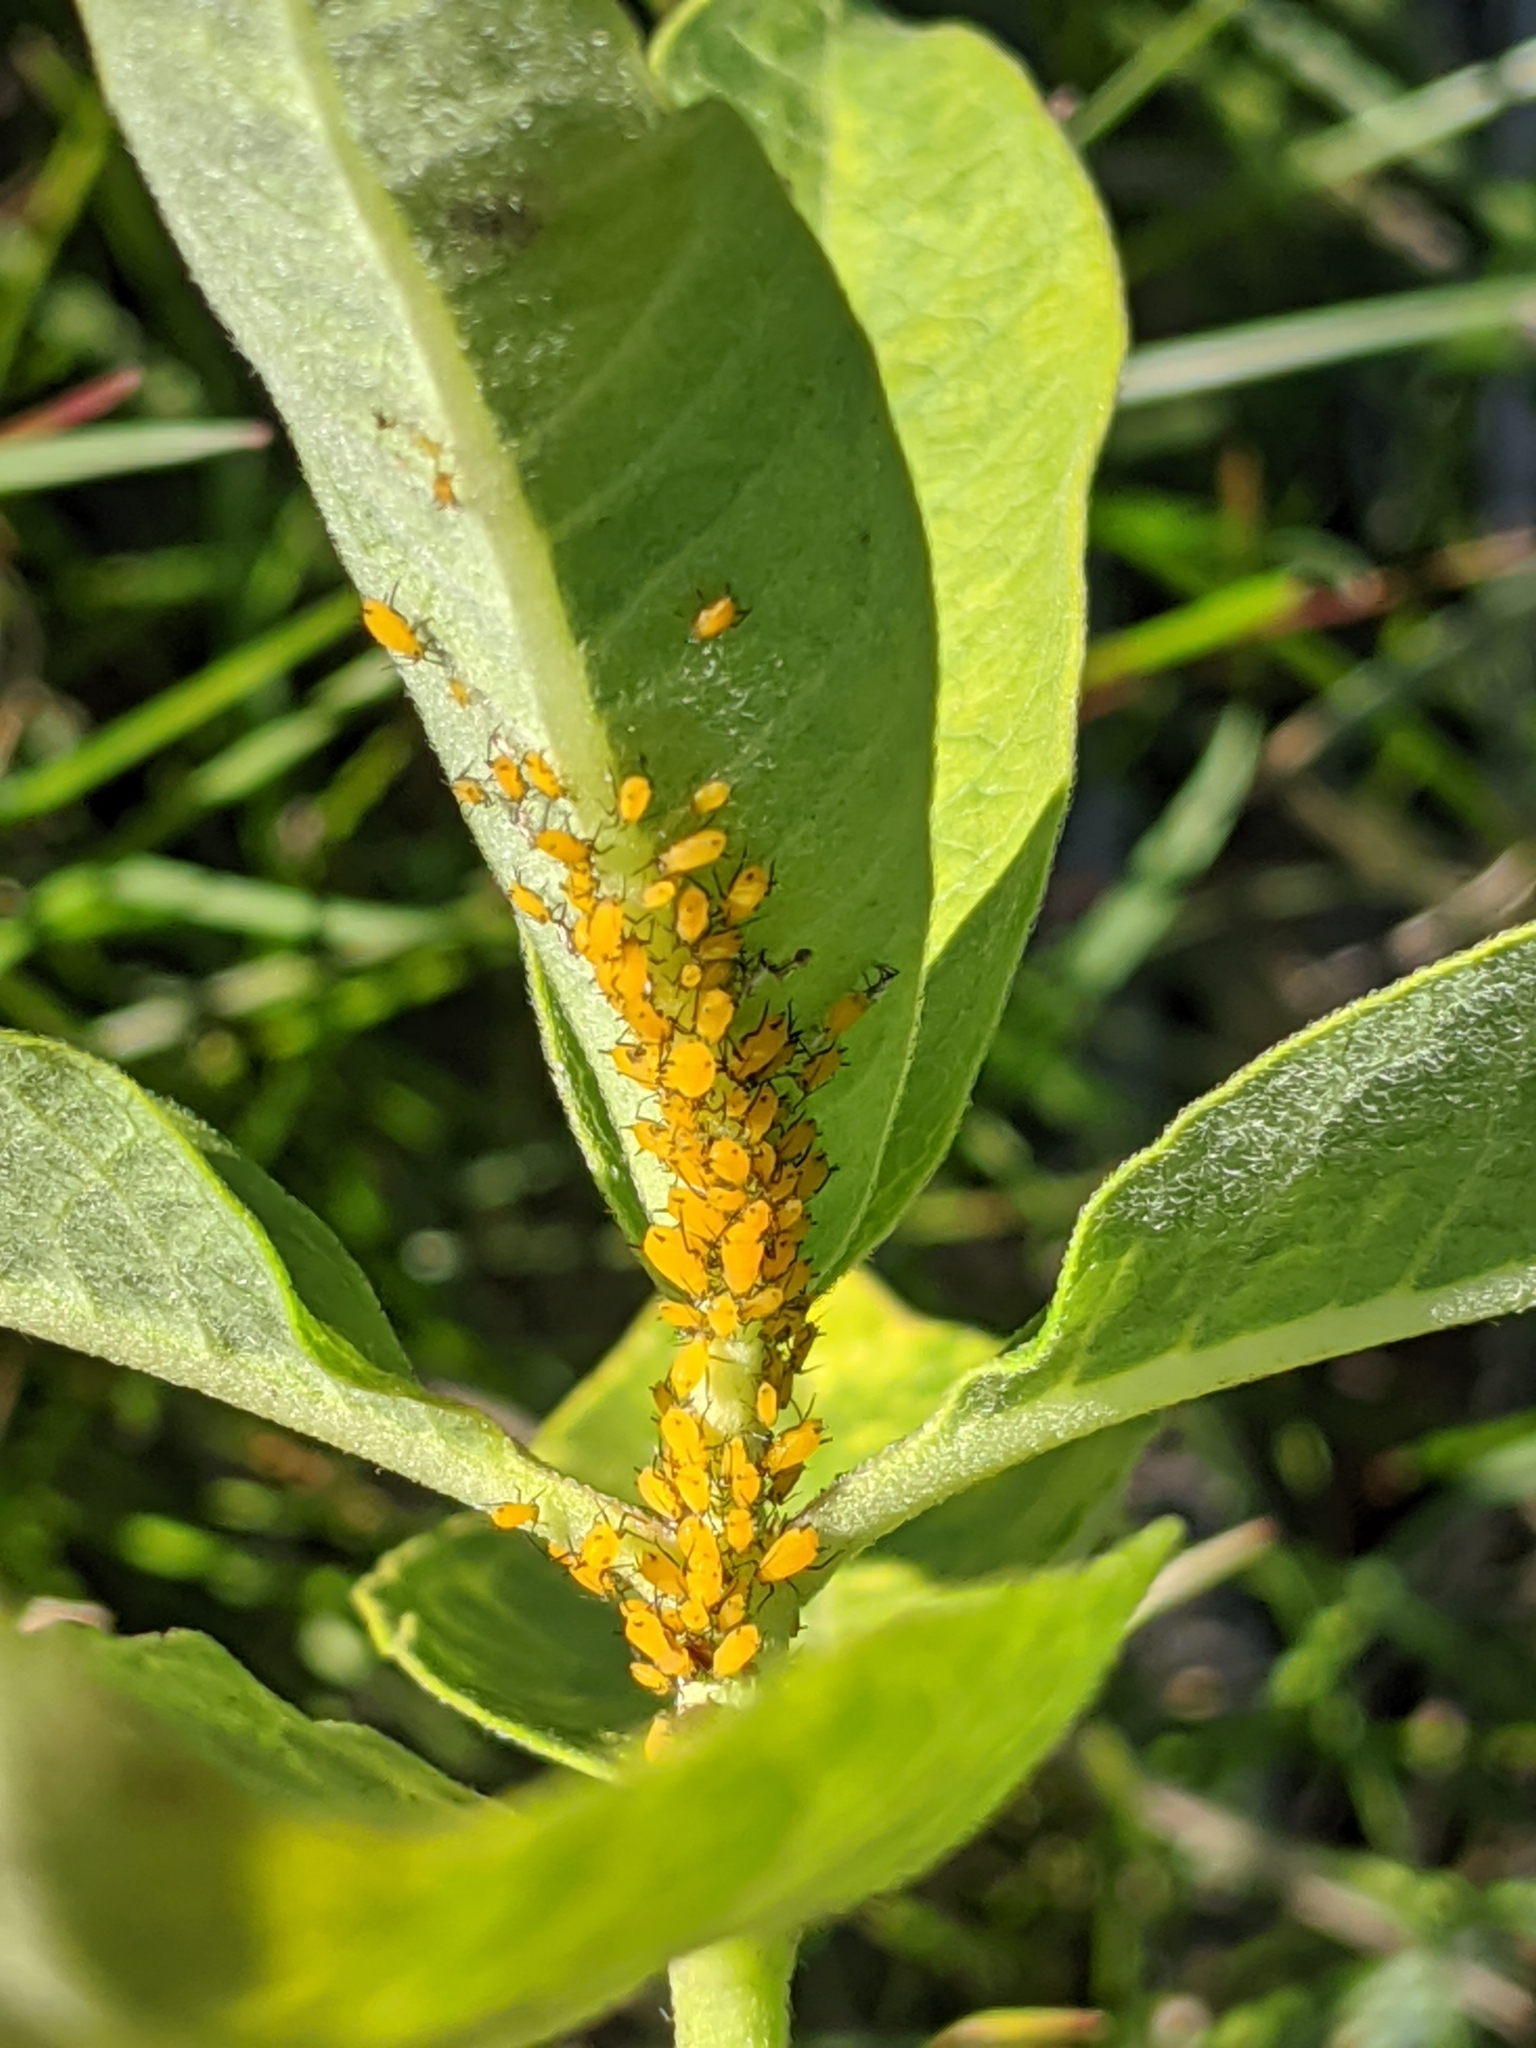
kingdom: Animalia
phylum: Arthropoda
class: Insecta
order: Hemiptera
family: Aphididae
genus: Aphis
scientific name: Aphis nerii
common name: Oleander aphid
